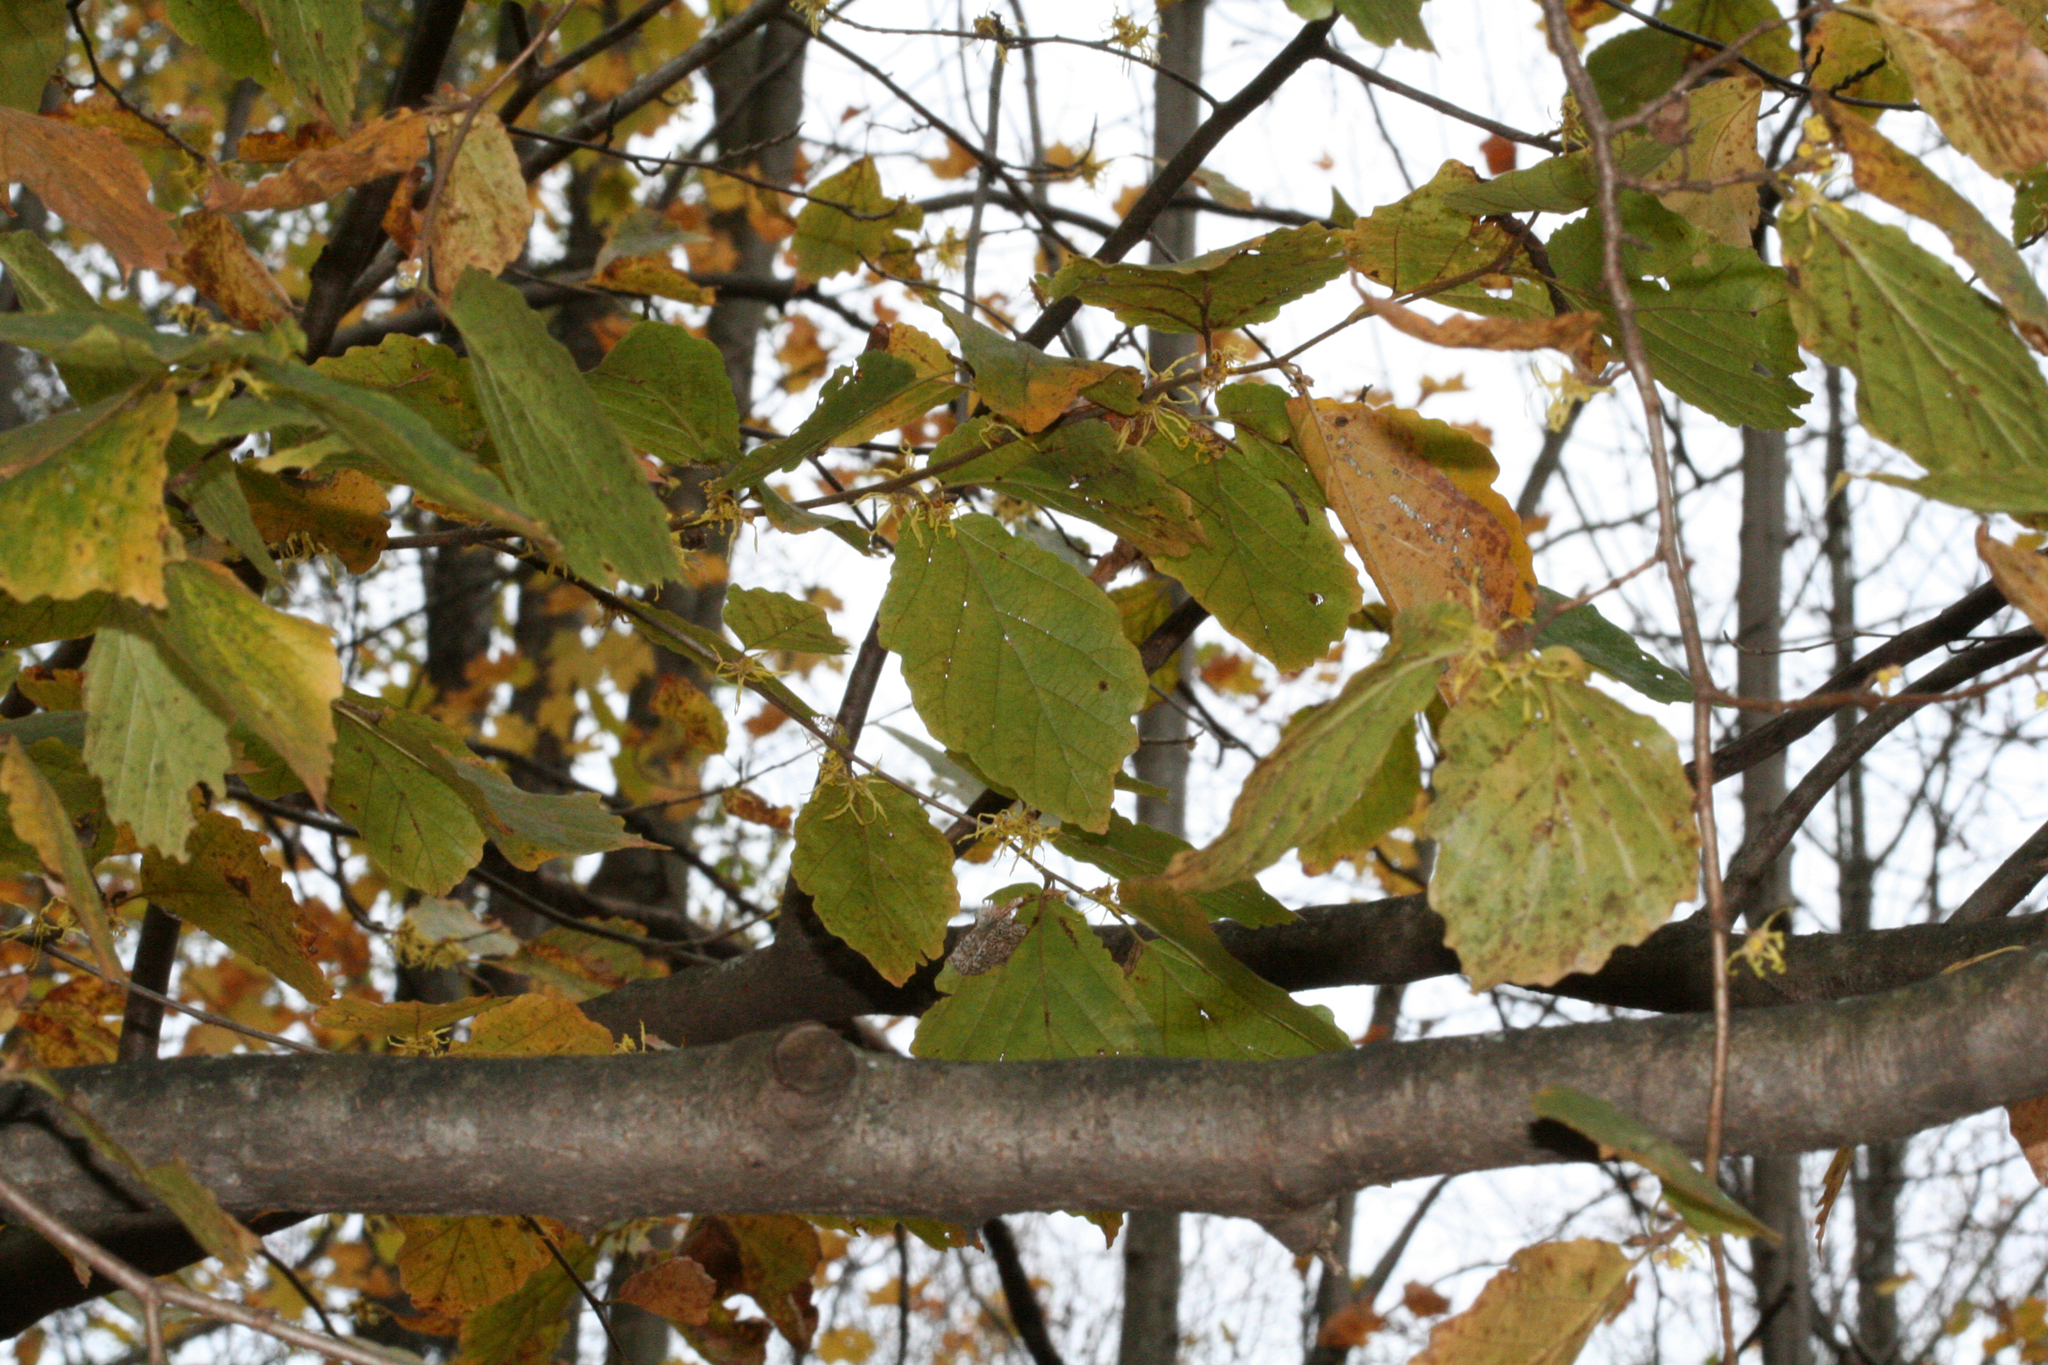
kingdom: Plantae
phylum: Tracheophyta
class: Magnoliopsida
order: Saxifragales
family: Hamamelidaceae
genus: Hamamelis
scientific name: Hamamelis virginiana
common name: Witch-hazel
